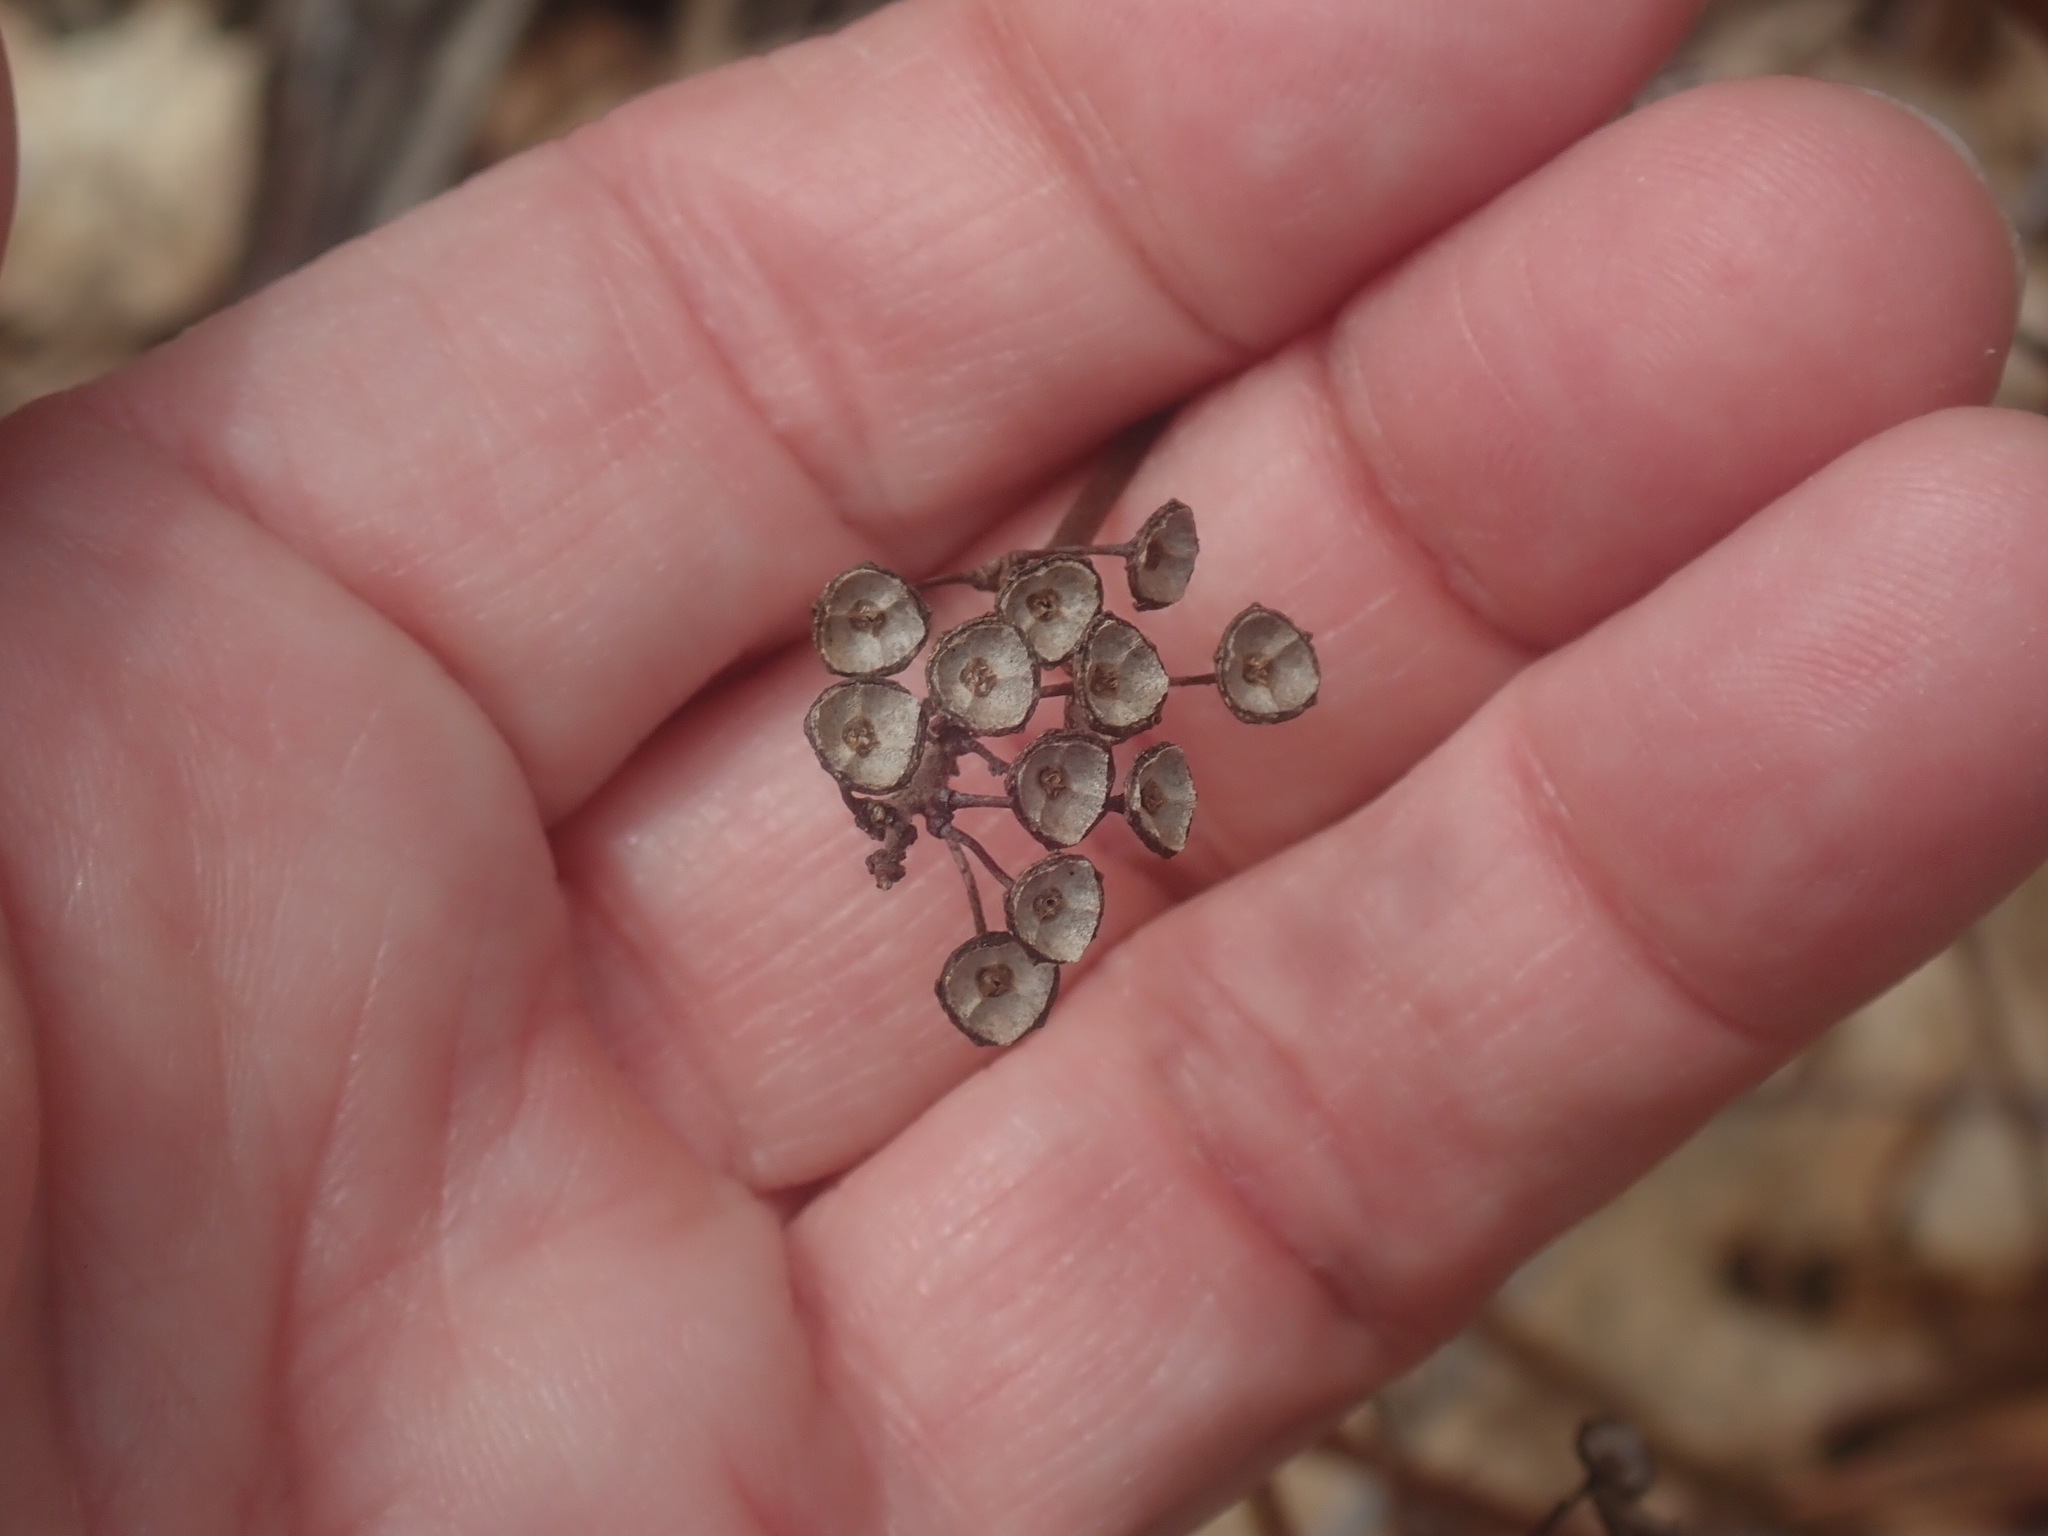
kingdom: Plantae
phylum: Tracheophyta
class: Magnoliopsida
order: Rosales
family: Rhamnaceae
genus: Ceanothus
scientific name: Ceanothus americanus
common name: Redroot
